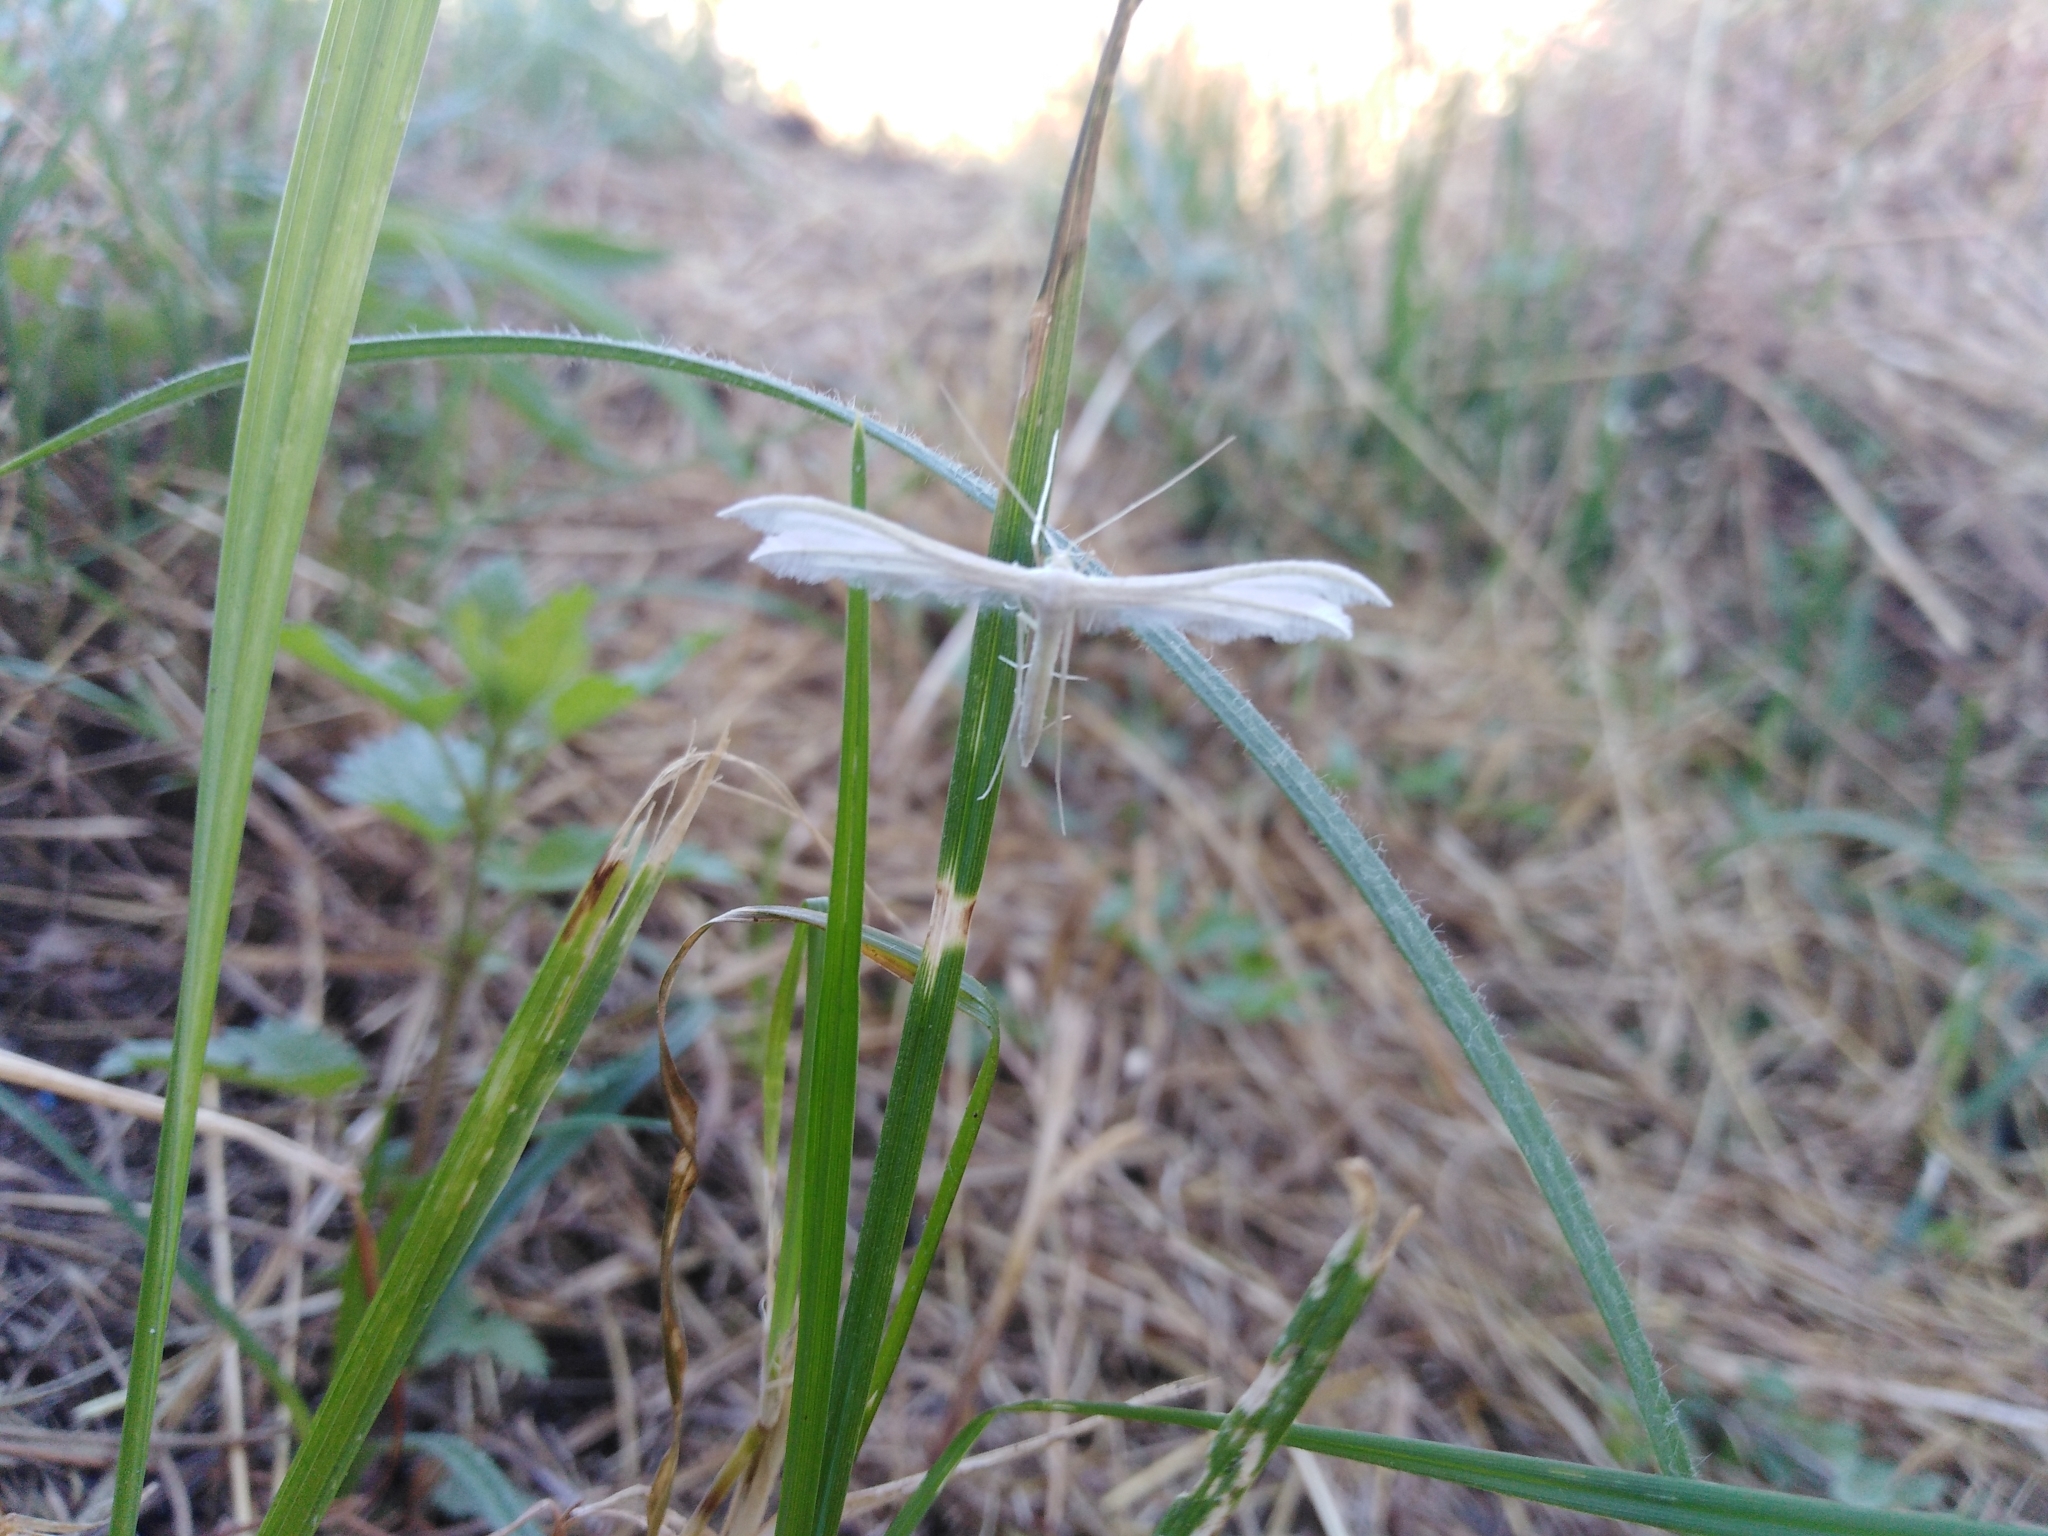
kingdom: Animalia
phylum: Arthropoda
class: Insecta
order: Lepidoptera
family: Pterophoridae
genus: Pterophorus
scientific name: Pterophorus pentadactyla
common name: White plume moth
